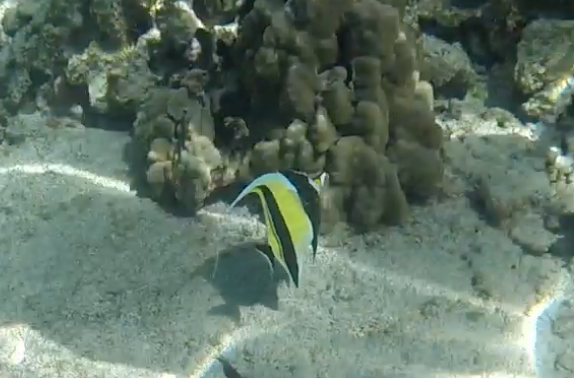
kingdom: Animalia
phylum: Chordata
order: Perciformes
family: Zanclidae
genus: Zanclus
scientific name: Zanclus cornutus
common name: Moorish idol
